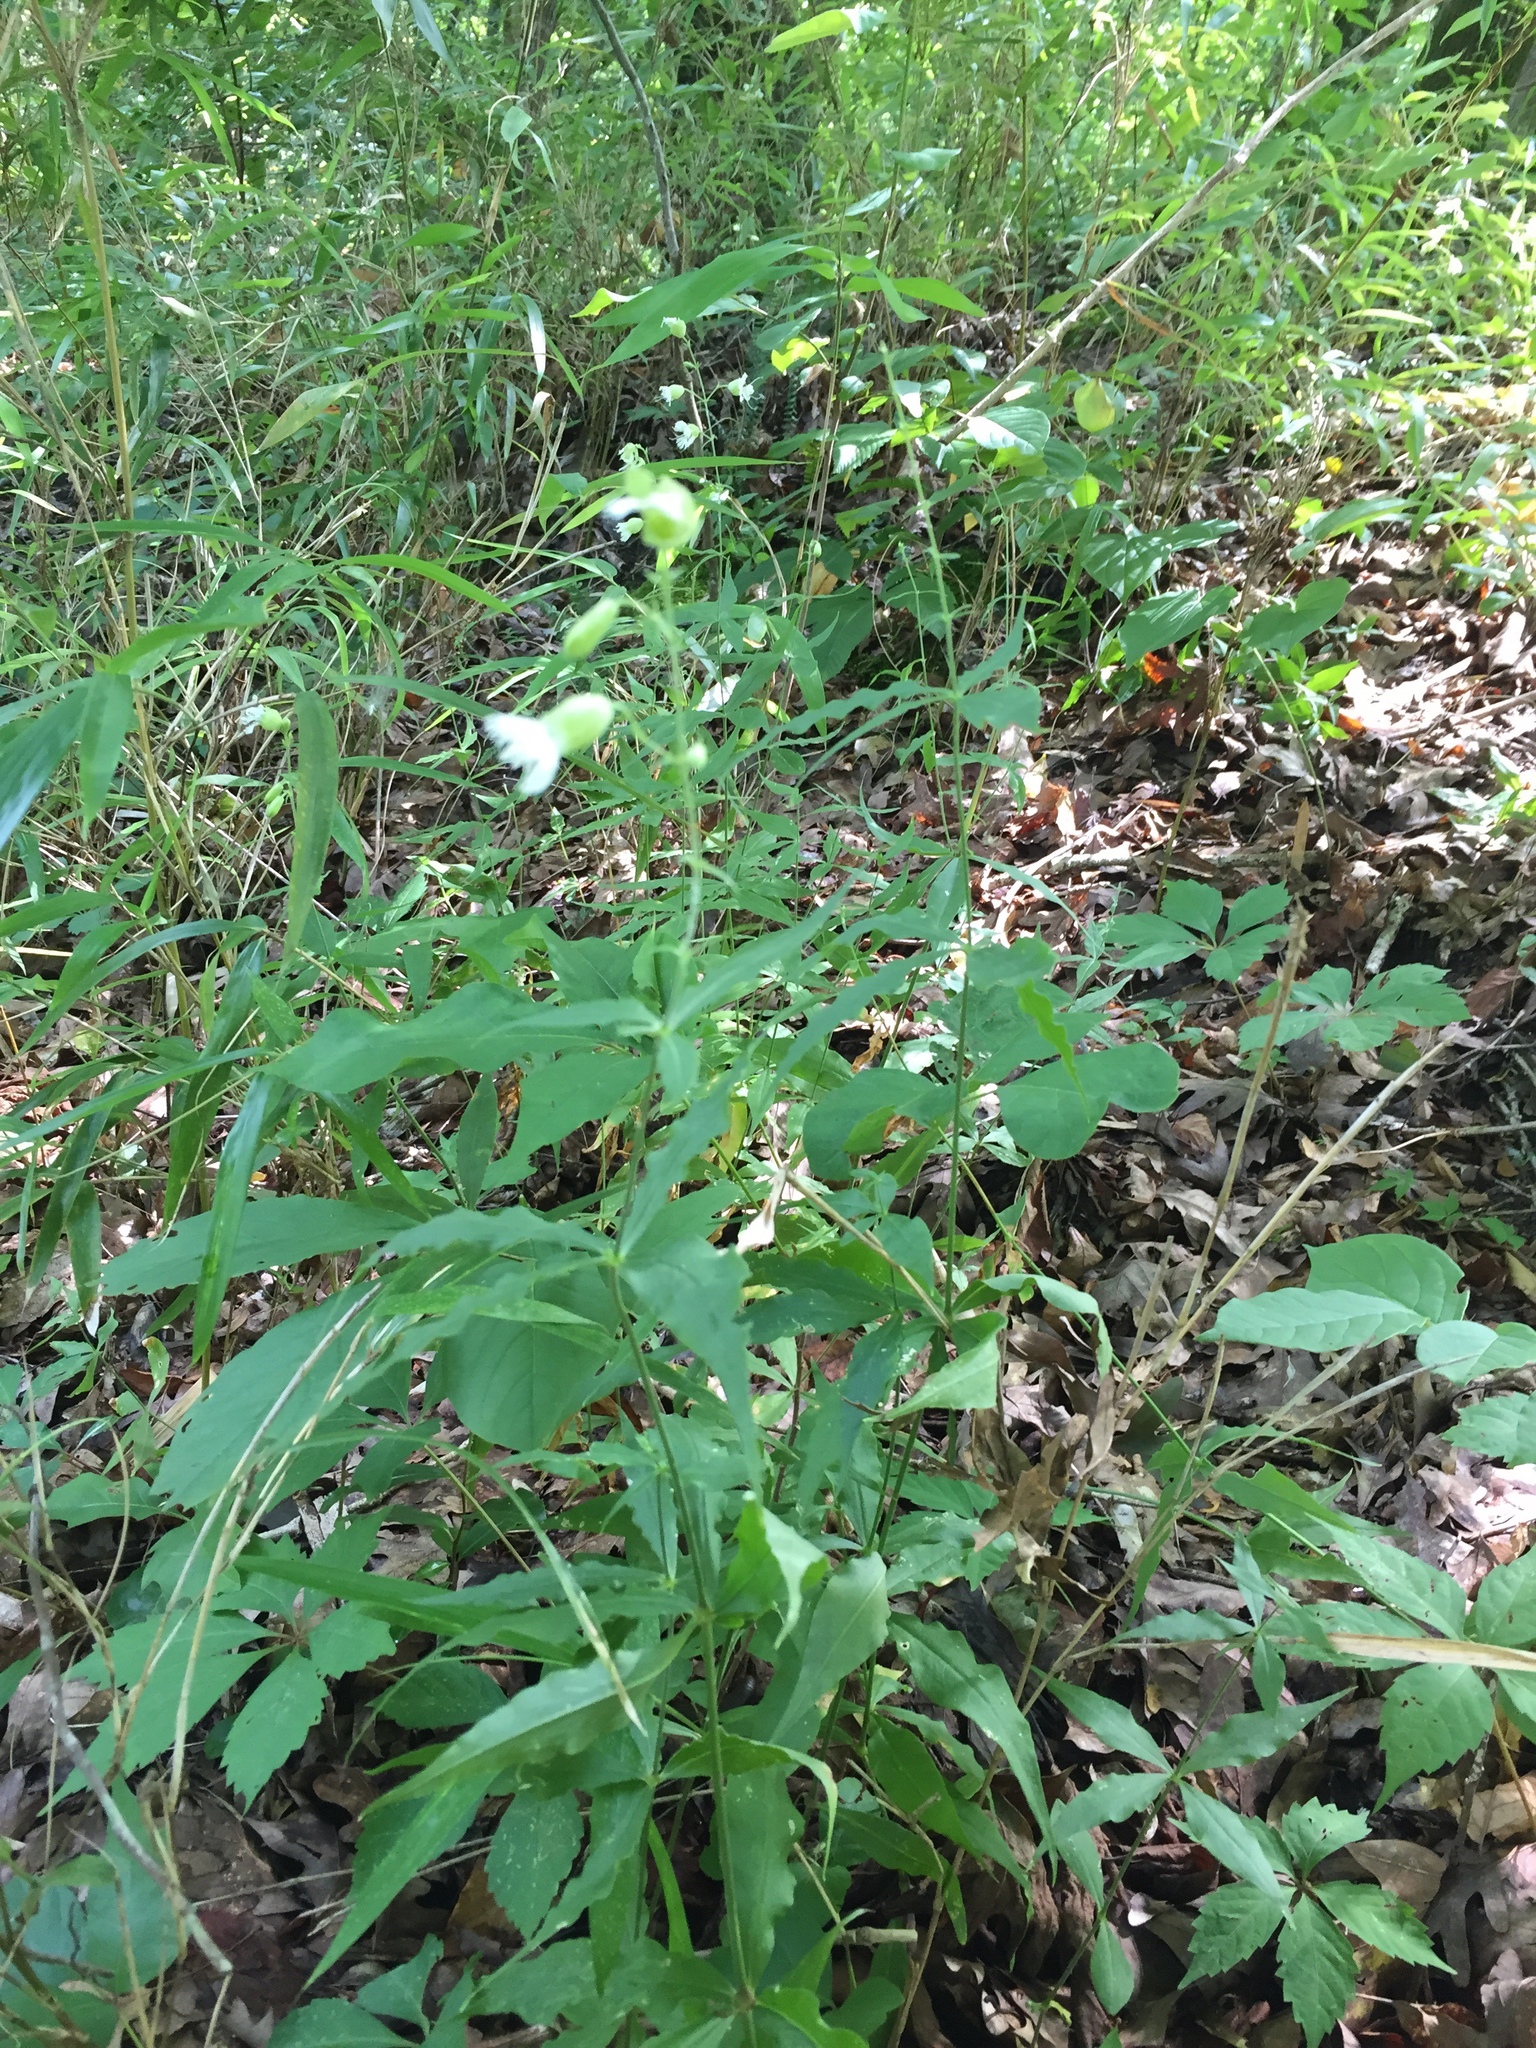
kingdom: Plantae
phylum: Tracheophyta
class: Magnoliopsida
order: Caryophyllales
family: Caryophyllaceae
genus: Silene
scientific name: Silene stellata
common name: Starry campion
